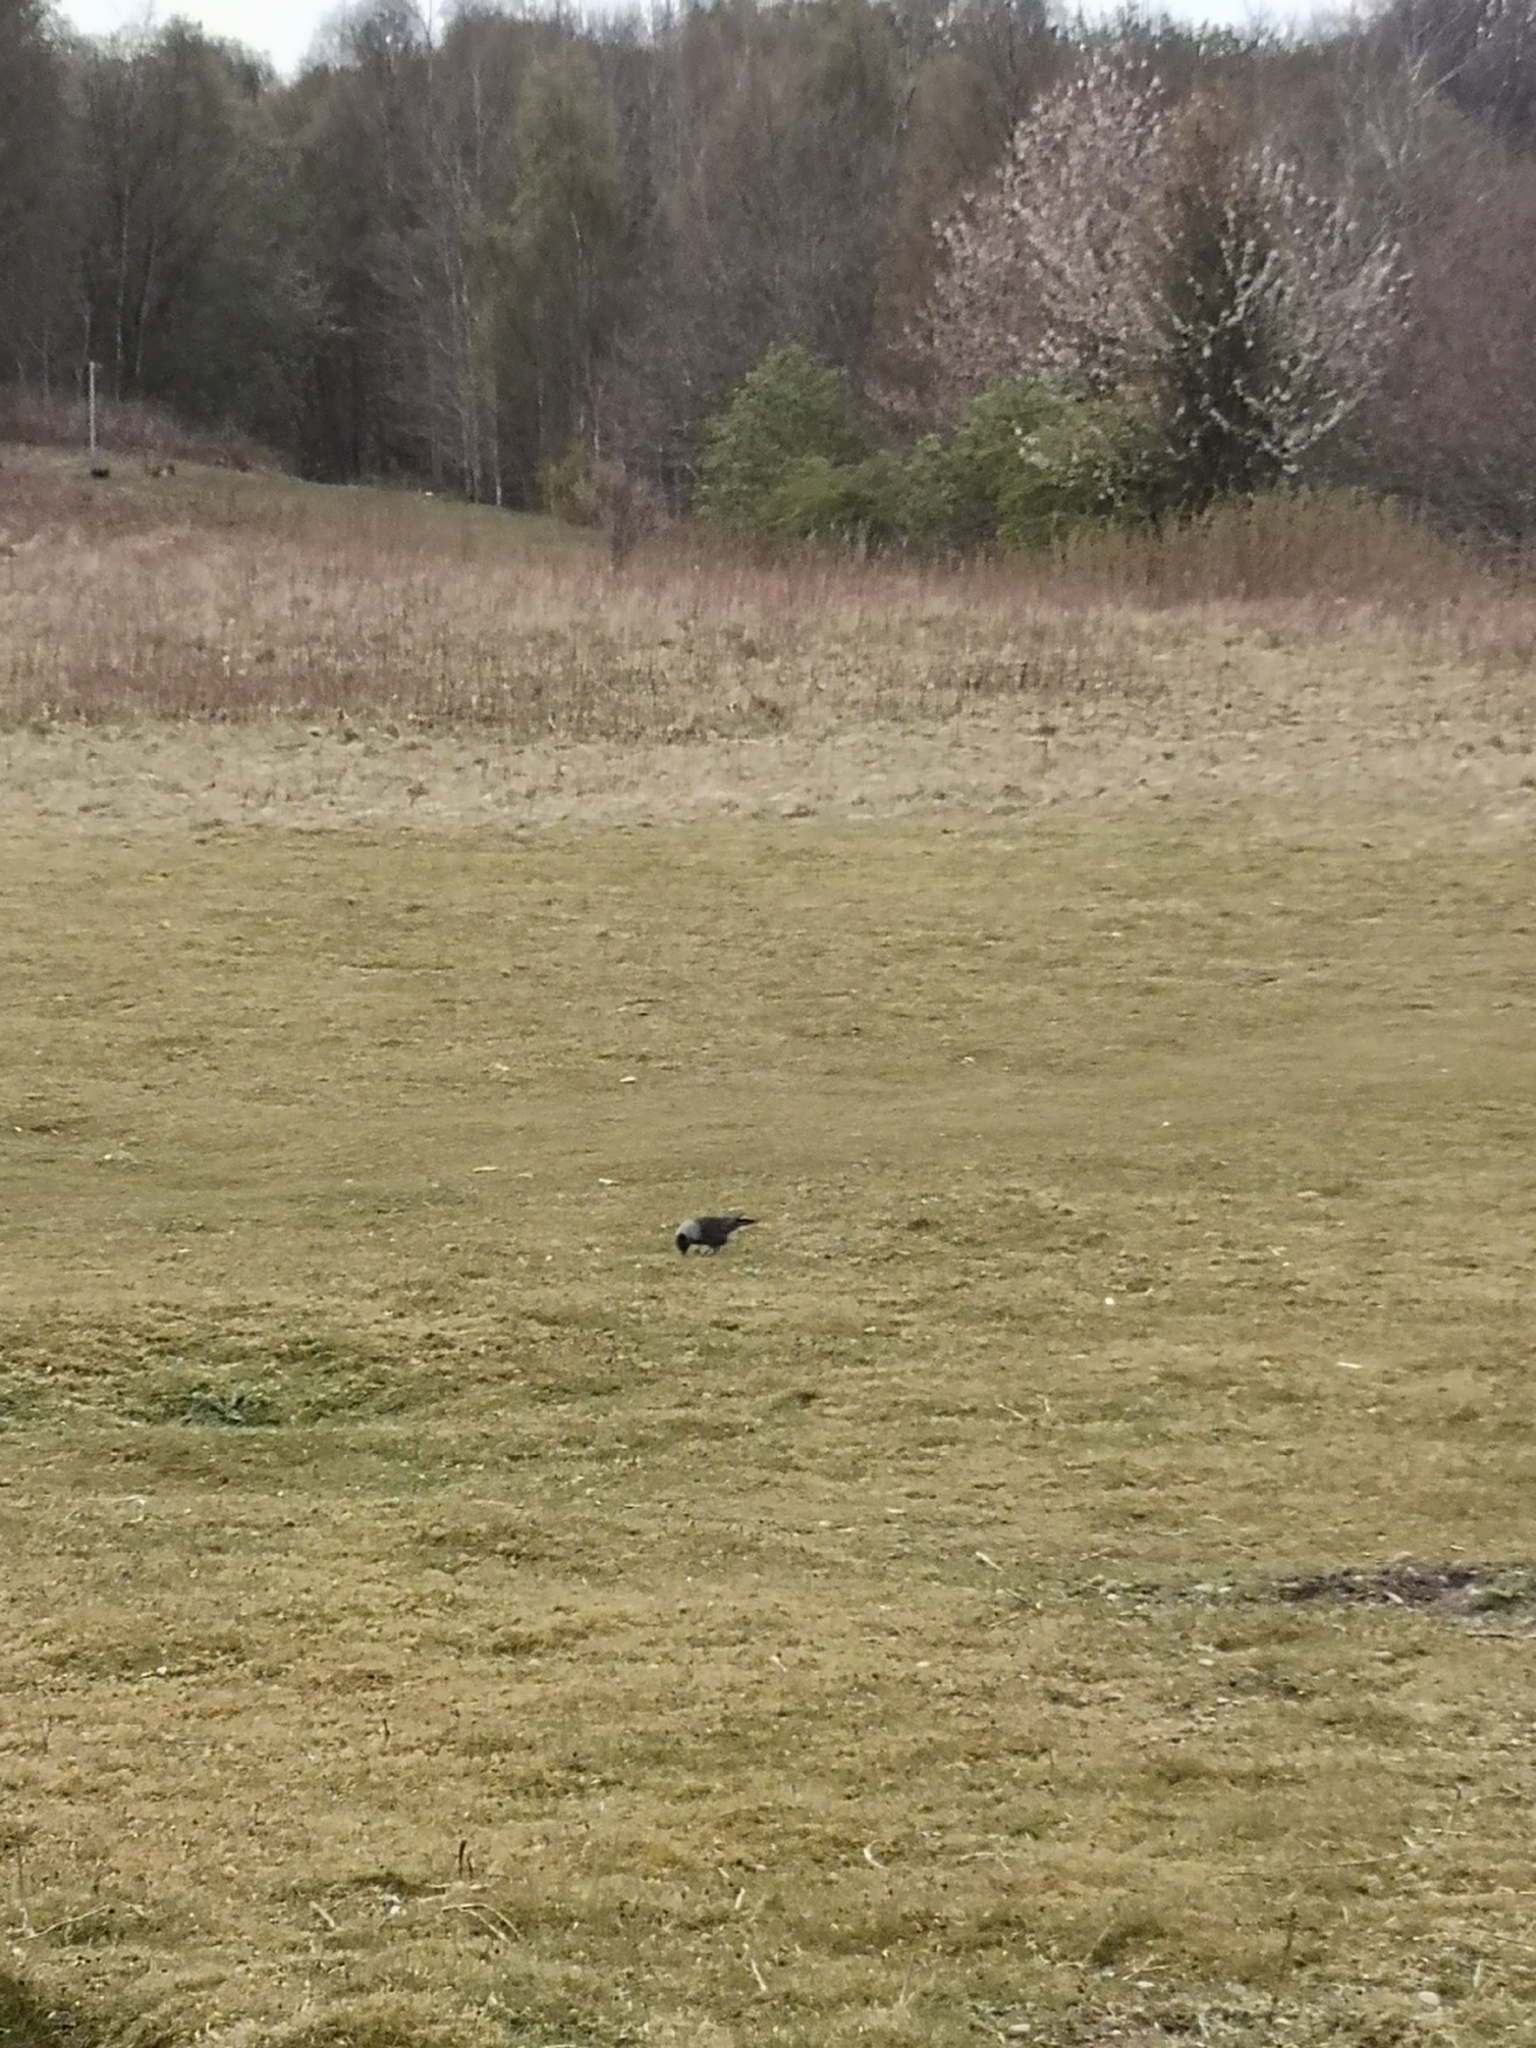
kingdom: Animalia
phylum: Chordata
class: Aves
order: Passeriformes
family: Corvidae
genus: Coloeus
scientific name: Coloeus monedula
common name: Western jackdaw
